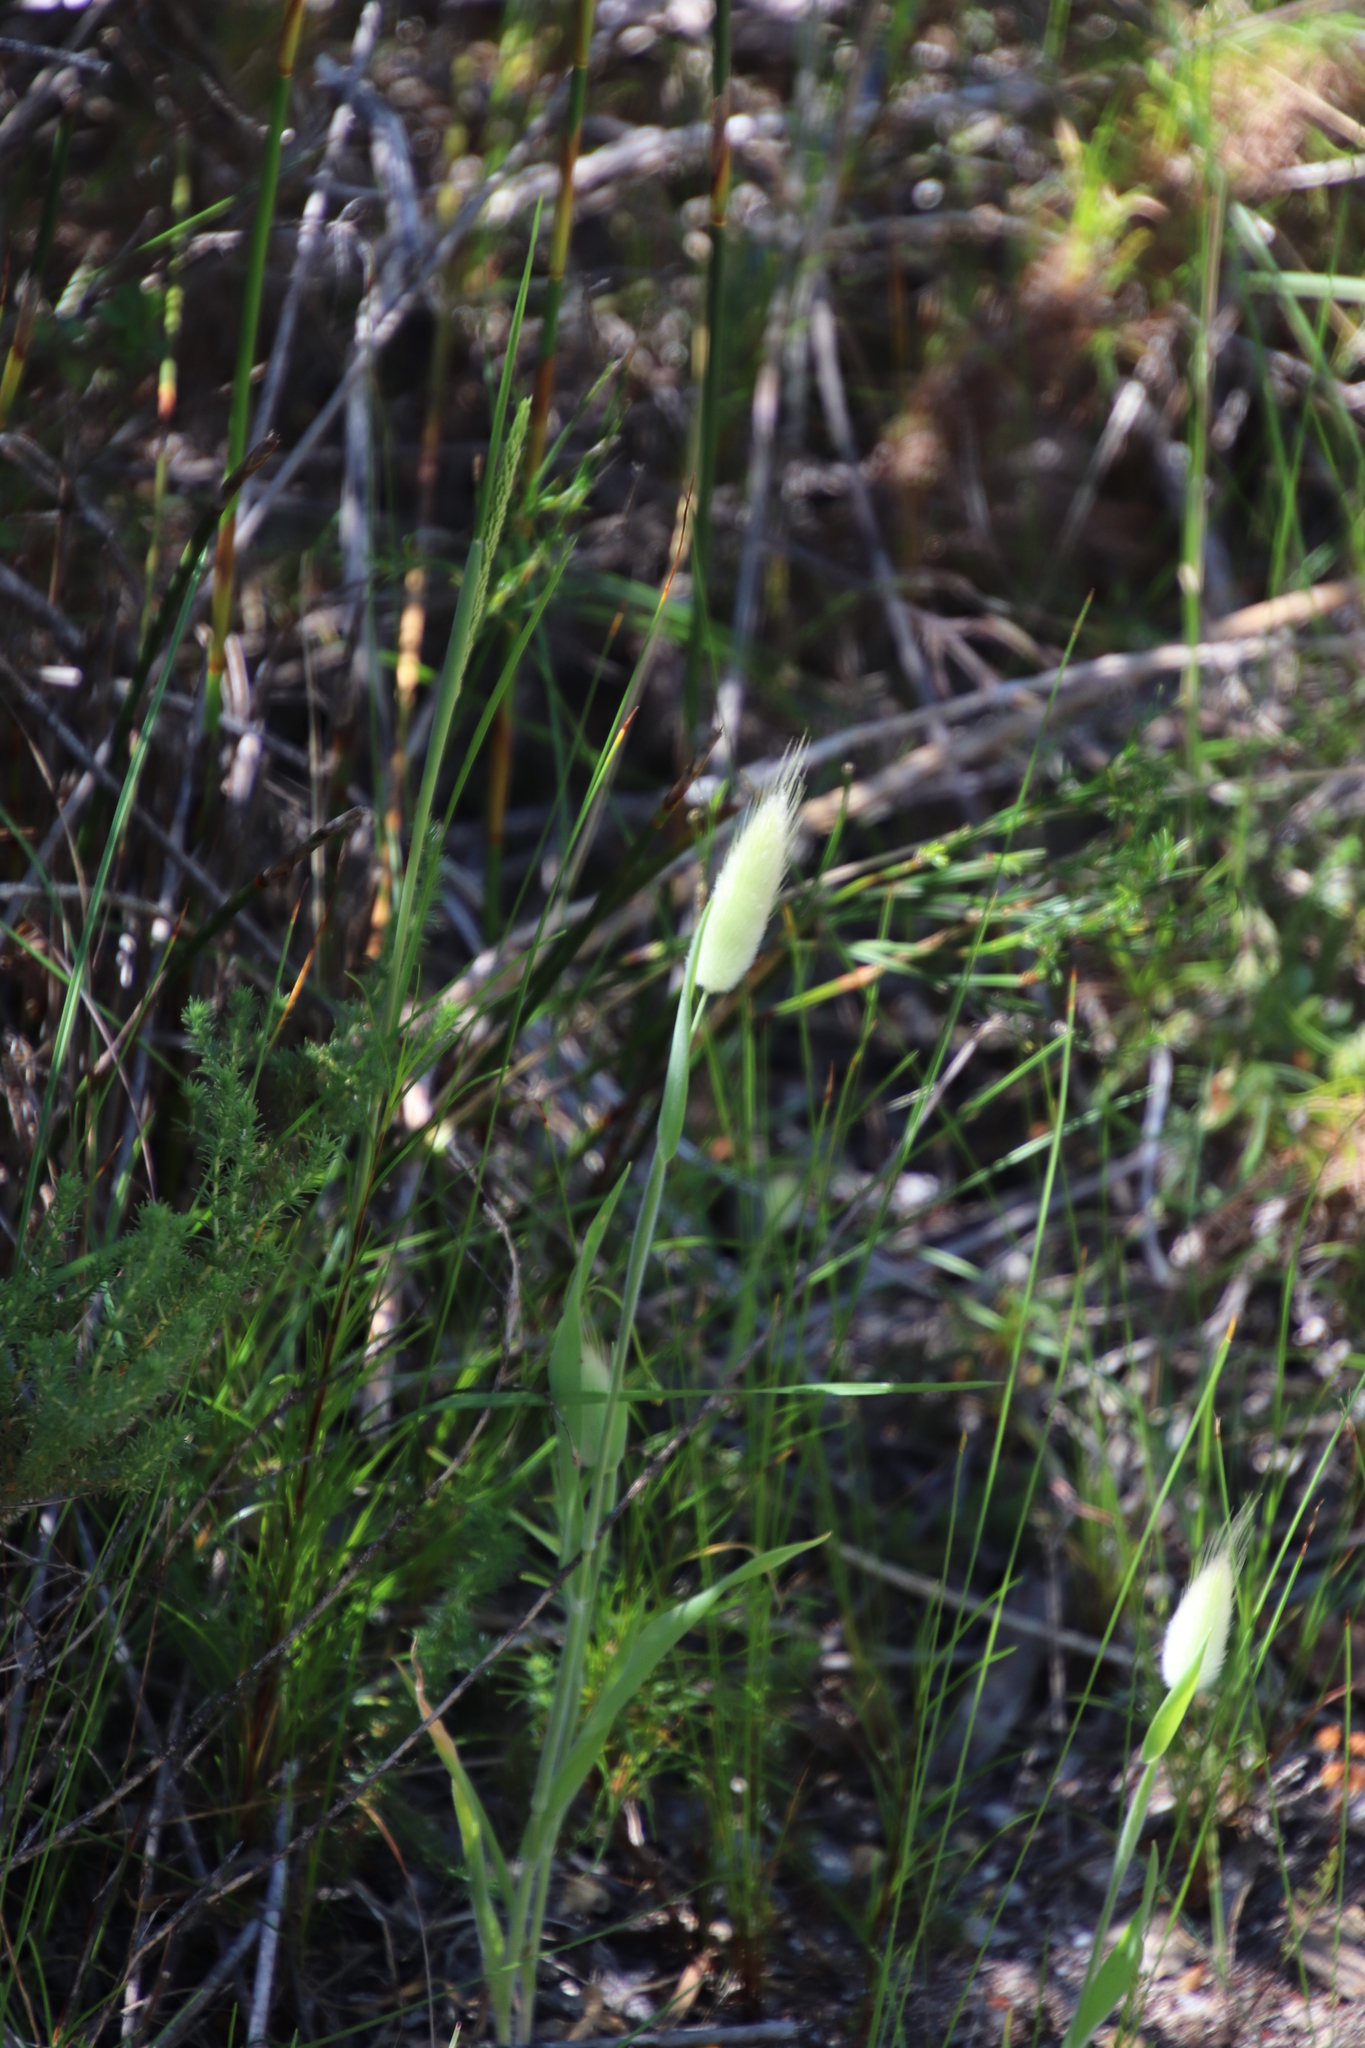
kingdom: Plantae
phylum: Tracheophyta
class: Liliopsida
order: Poales
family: Poaceae
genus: Lagurus
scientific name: Lagurus ovatus
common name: Hare's-tail
